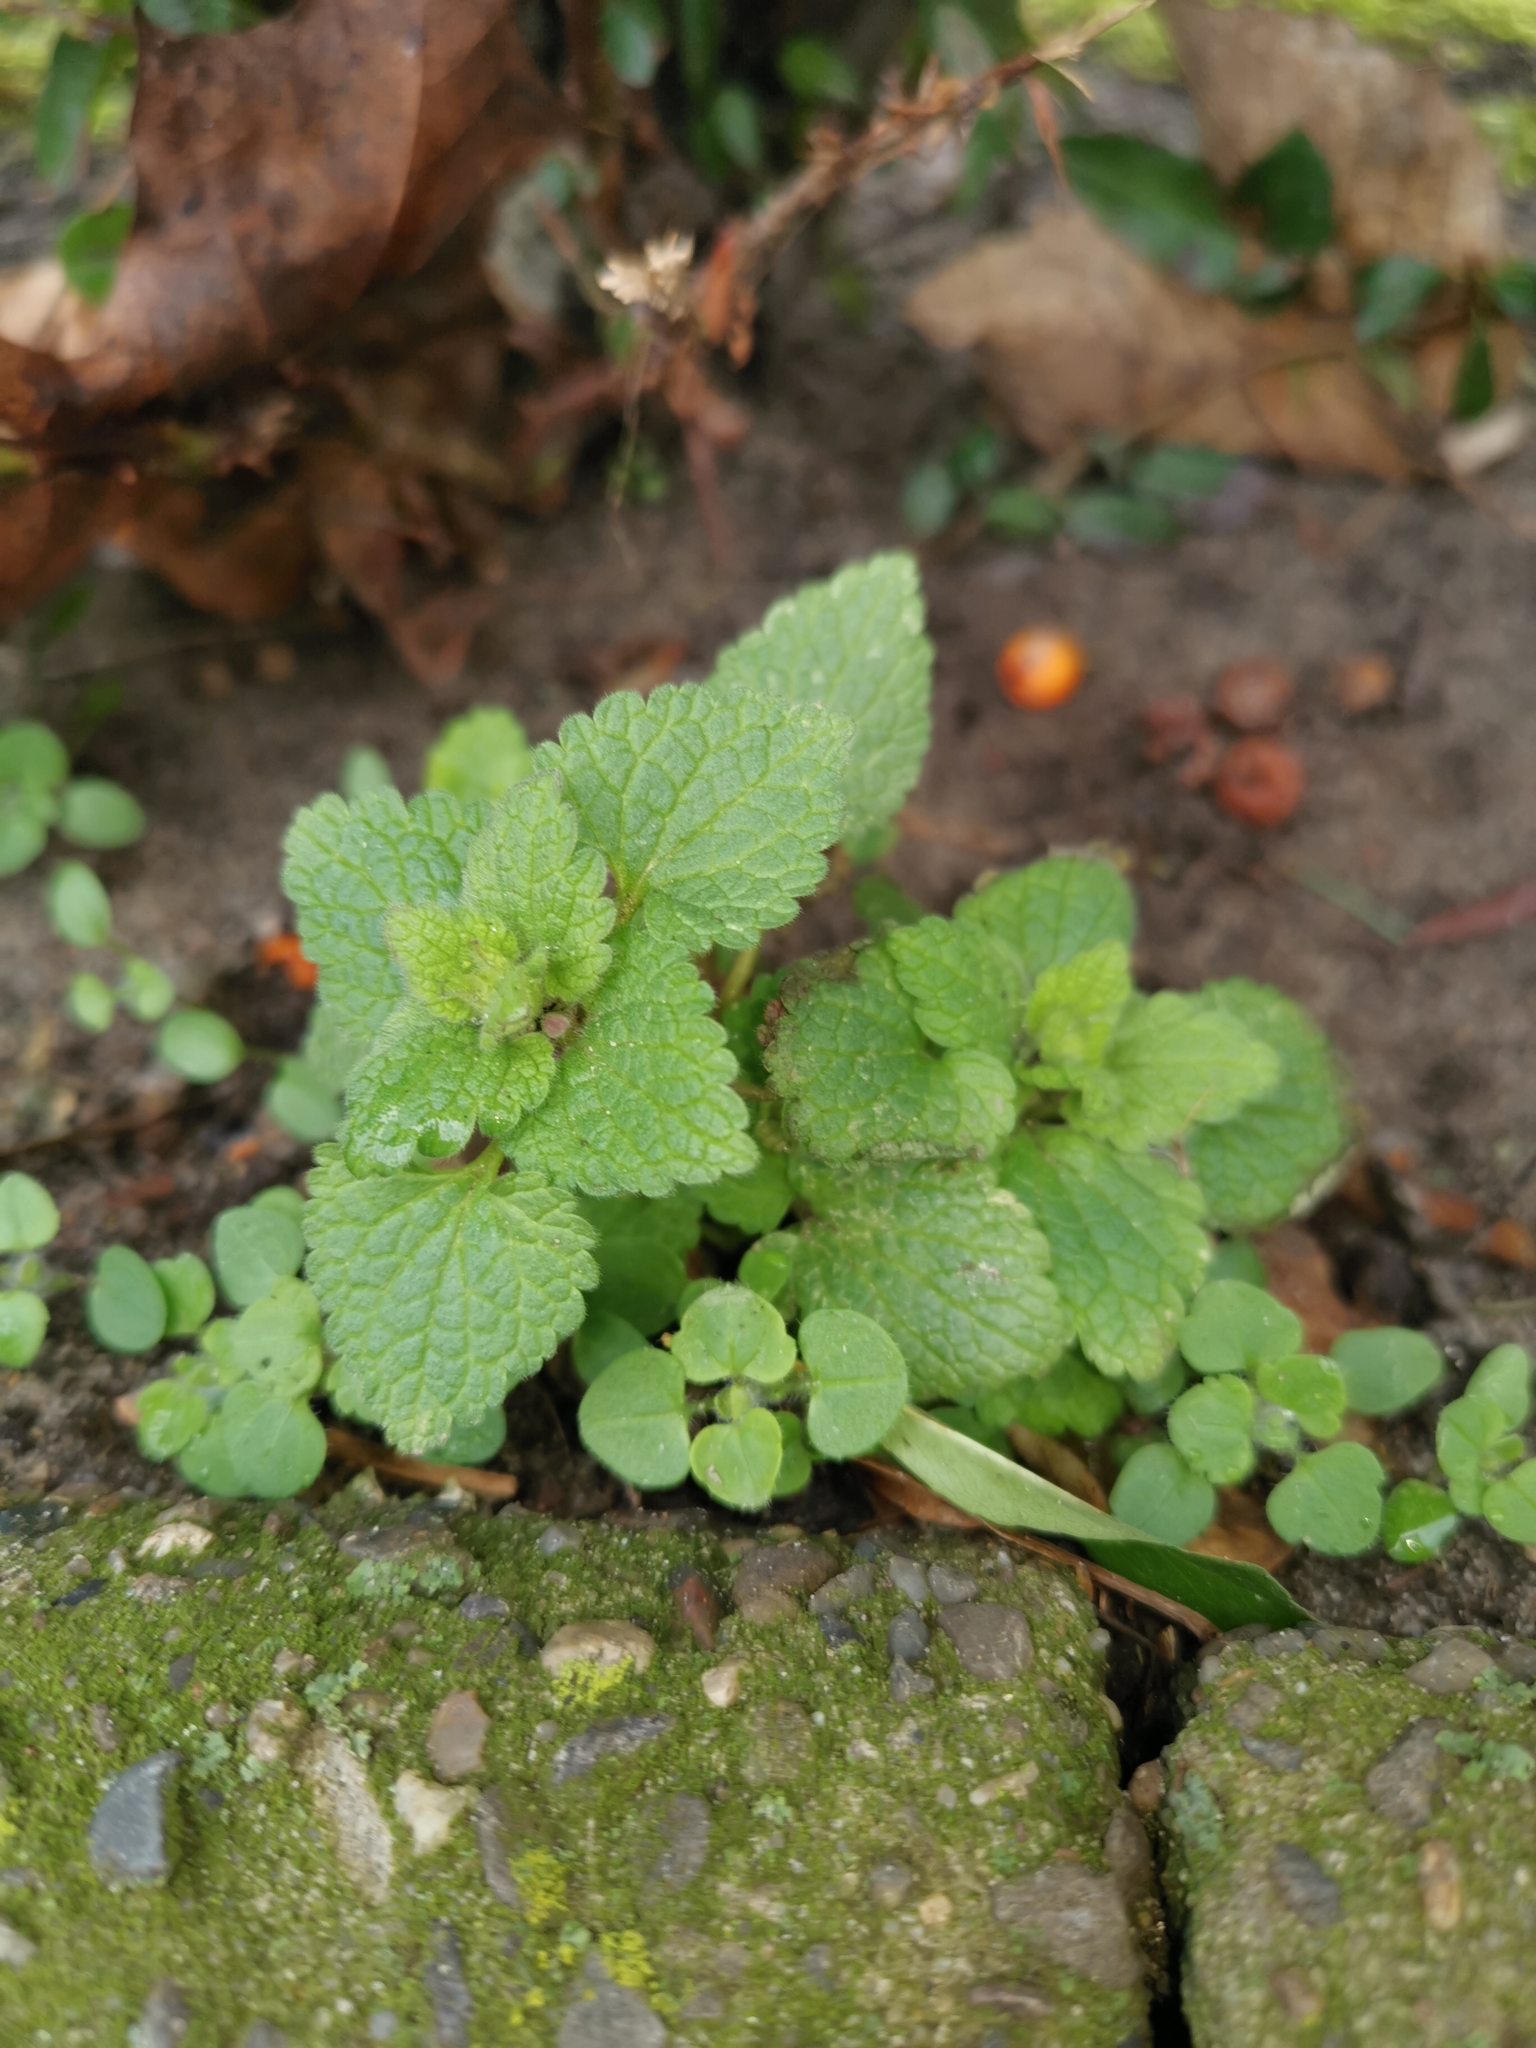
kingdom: Plantae
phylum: Tracheophyta
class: Magnoliopsida
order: Lamiales
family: Lamiaceae
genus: Lamium
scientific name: Lamium purpureum
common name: Red dead-nettle
